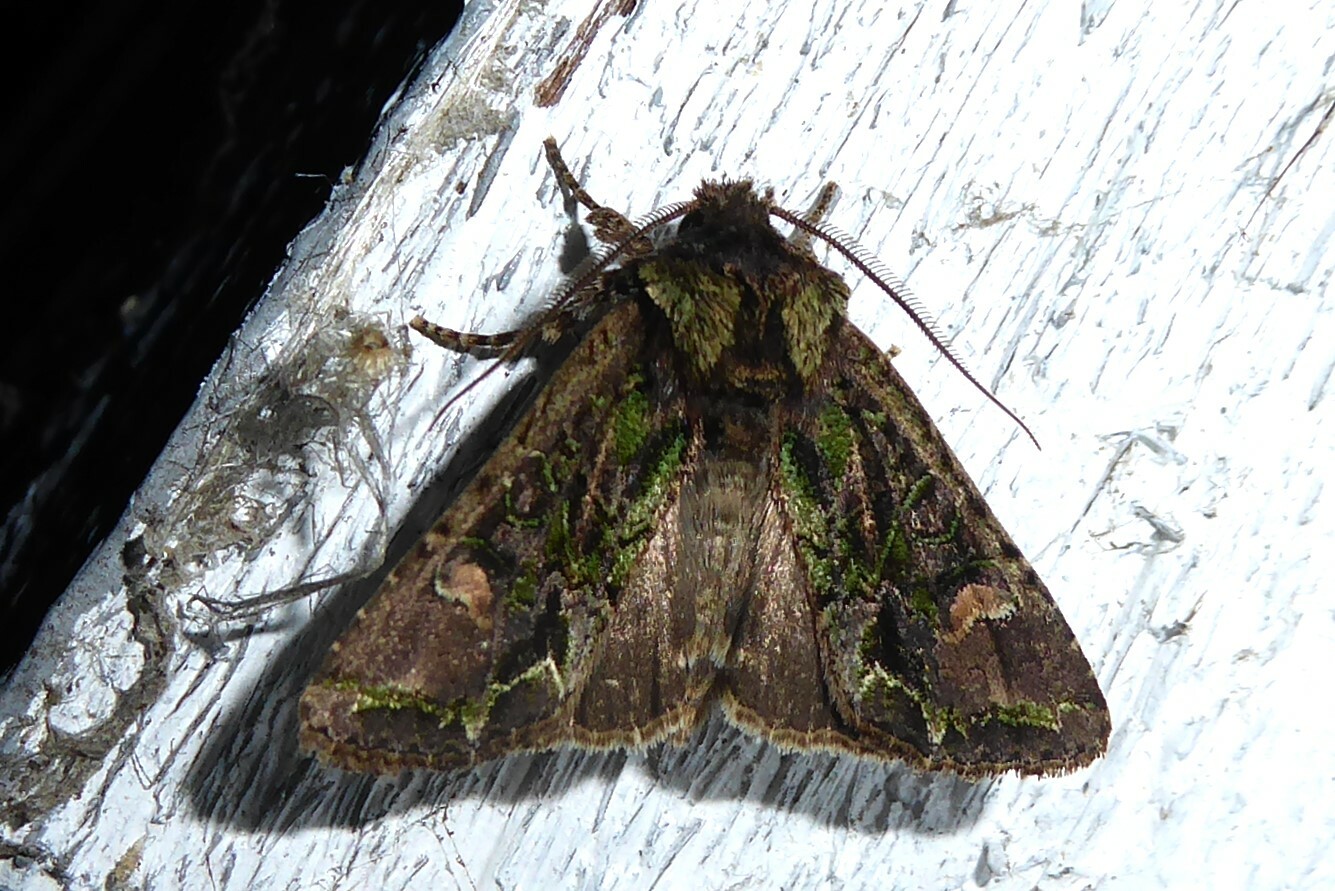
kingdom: Animalia
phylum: Arthropoda
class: Insecta
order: Lepidoptera
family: Noctuidae
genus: Ichneutica
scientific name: Ichneutica insignis
